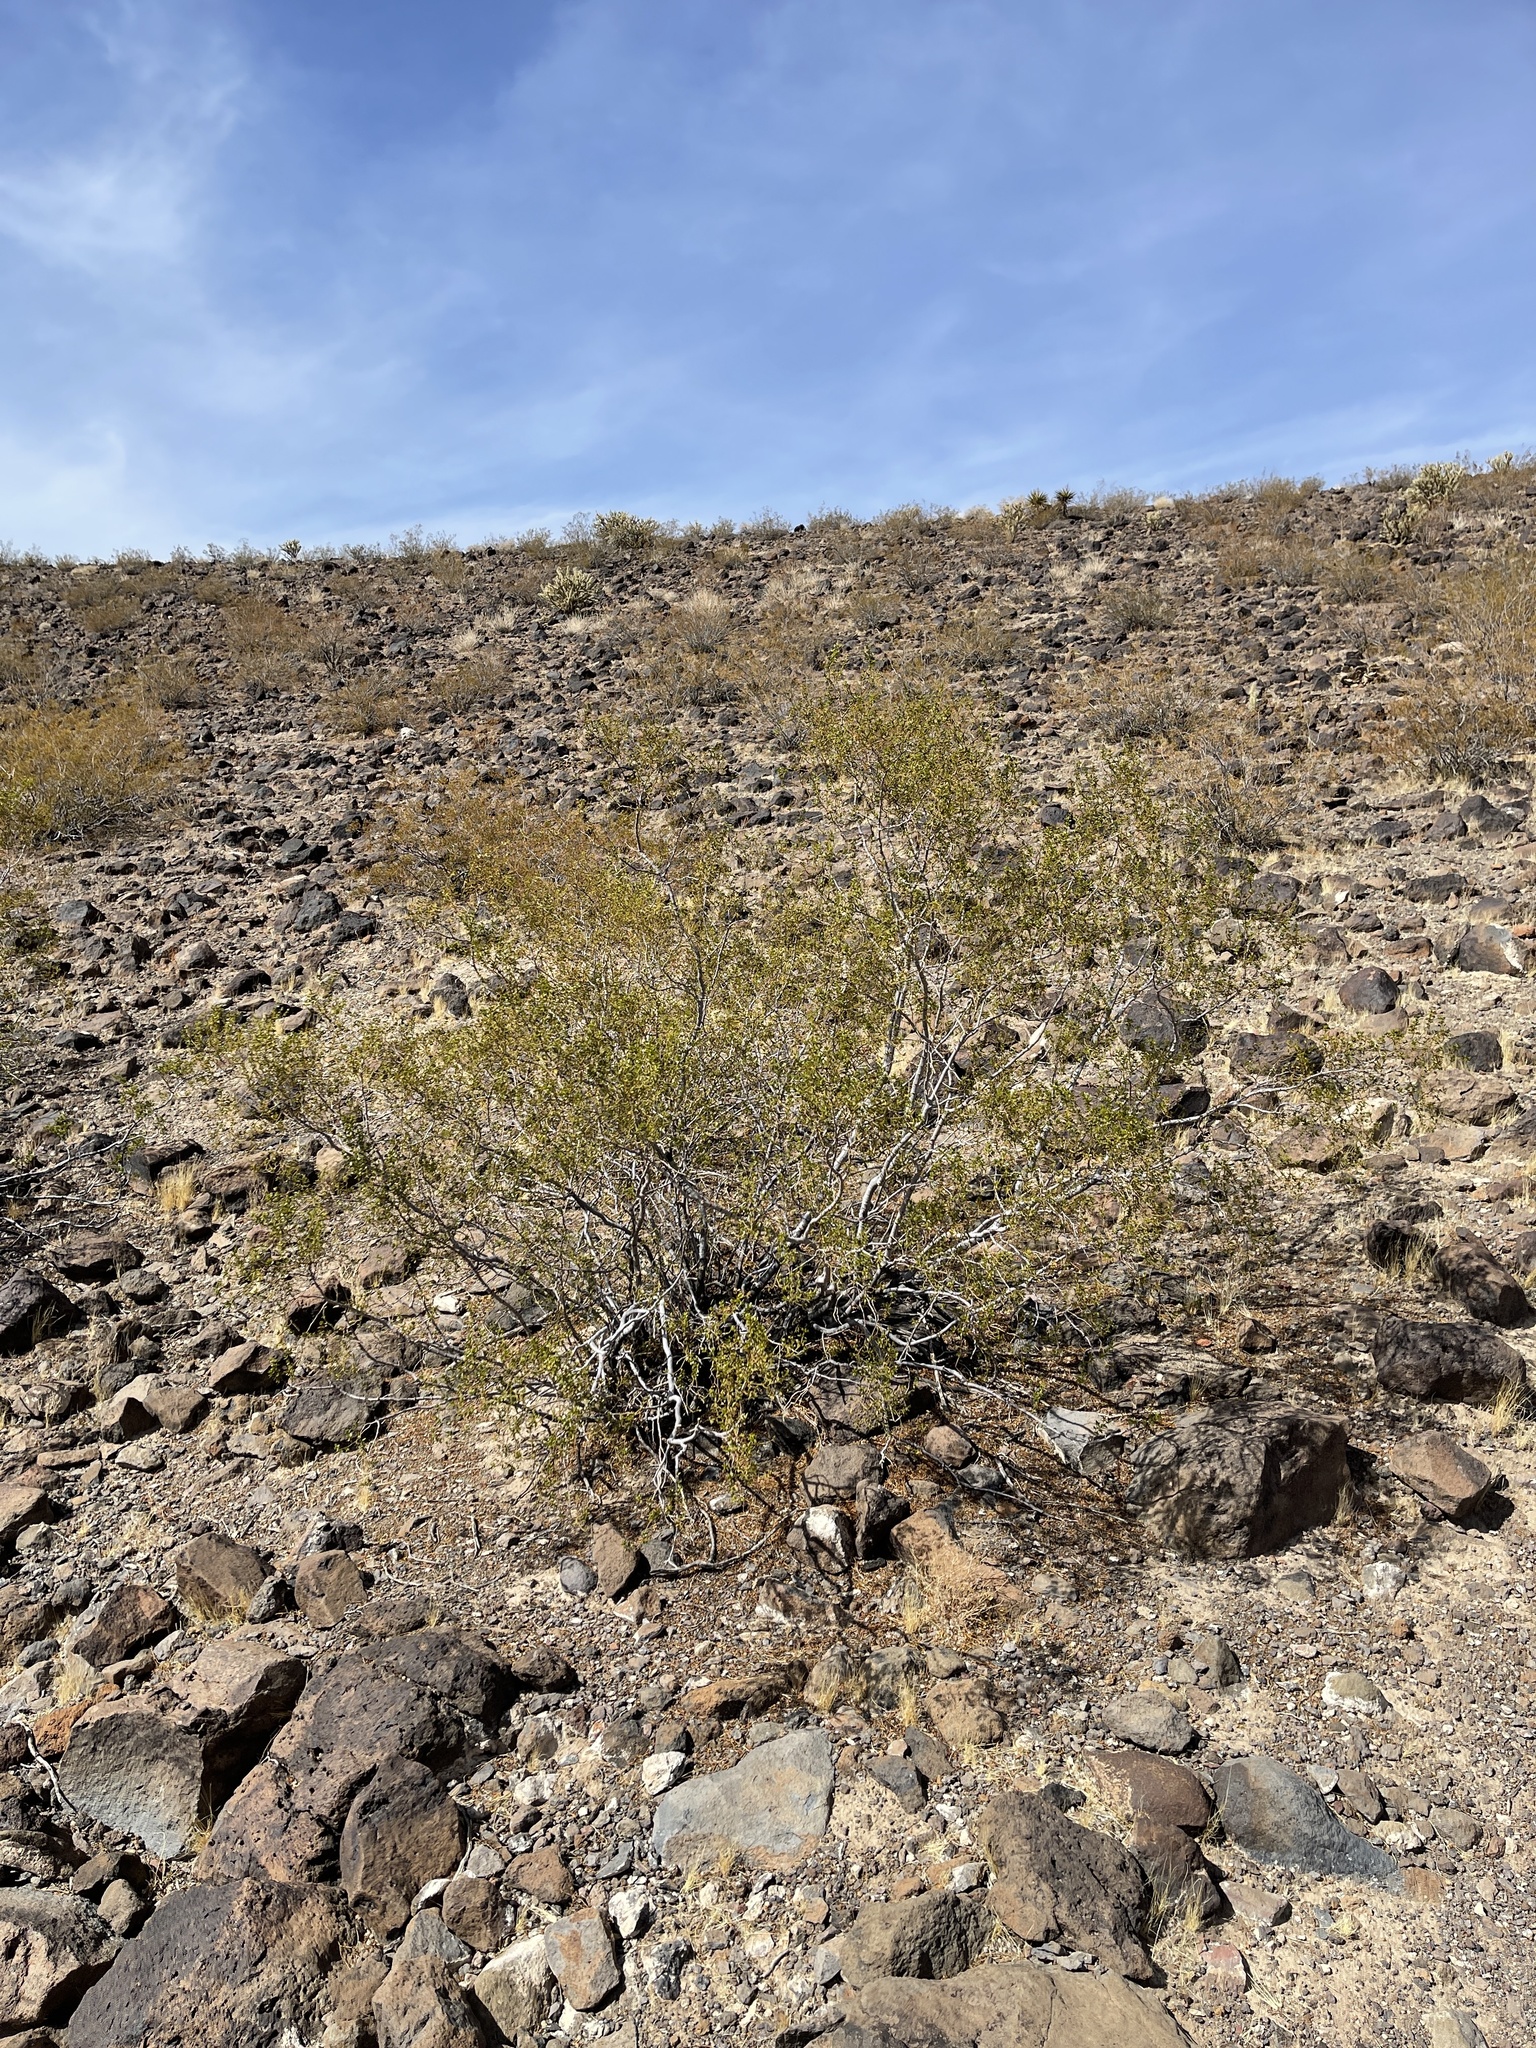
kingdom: Plantae
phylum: Tracheophyta
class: Magnoliopsida
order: Zygophyllales
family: Zygophyllaceae
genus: Larrea
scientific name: Larrea tridentata
